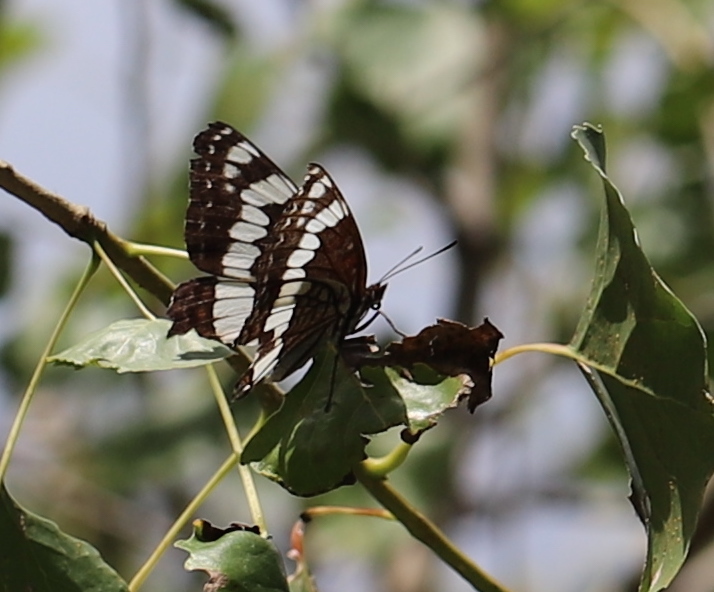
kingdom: Animalia
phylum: Arthropoda
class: Insecta
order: Lepidoptera
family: Nymphalidae
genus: Limenitis
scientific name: Limenitis weidemeyerii
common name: Weidemeyer's admiral
